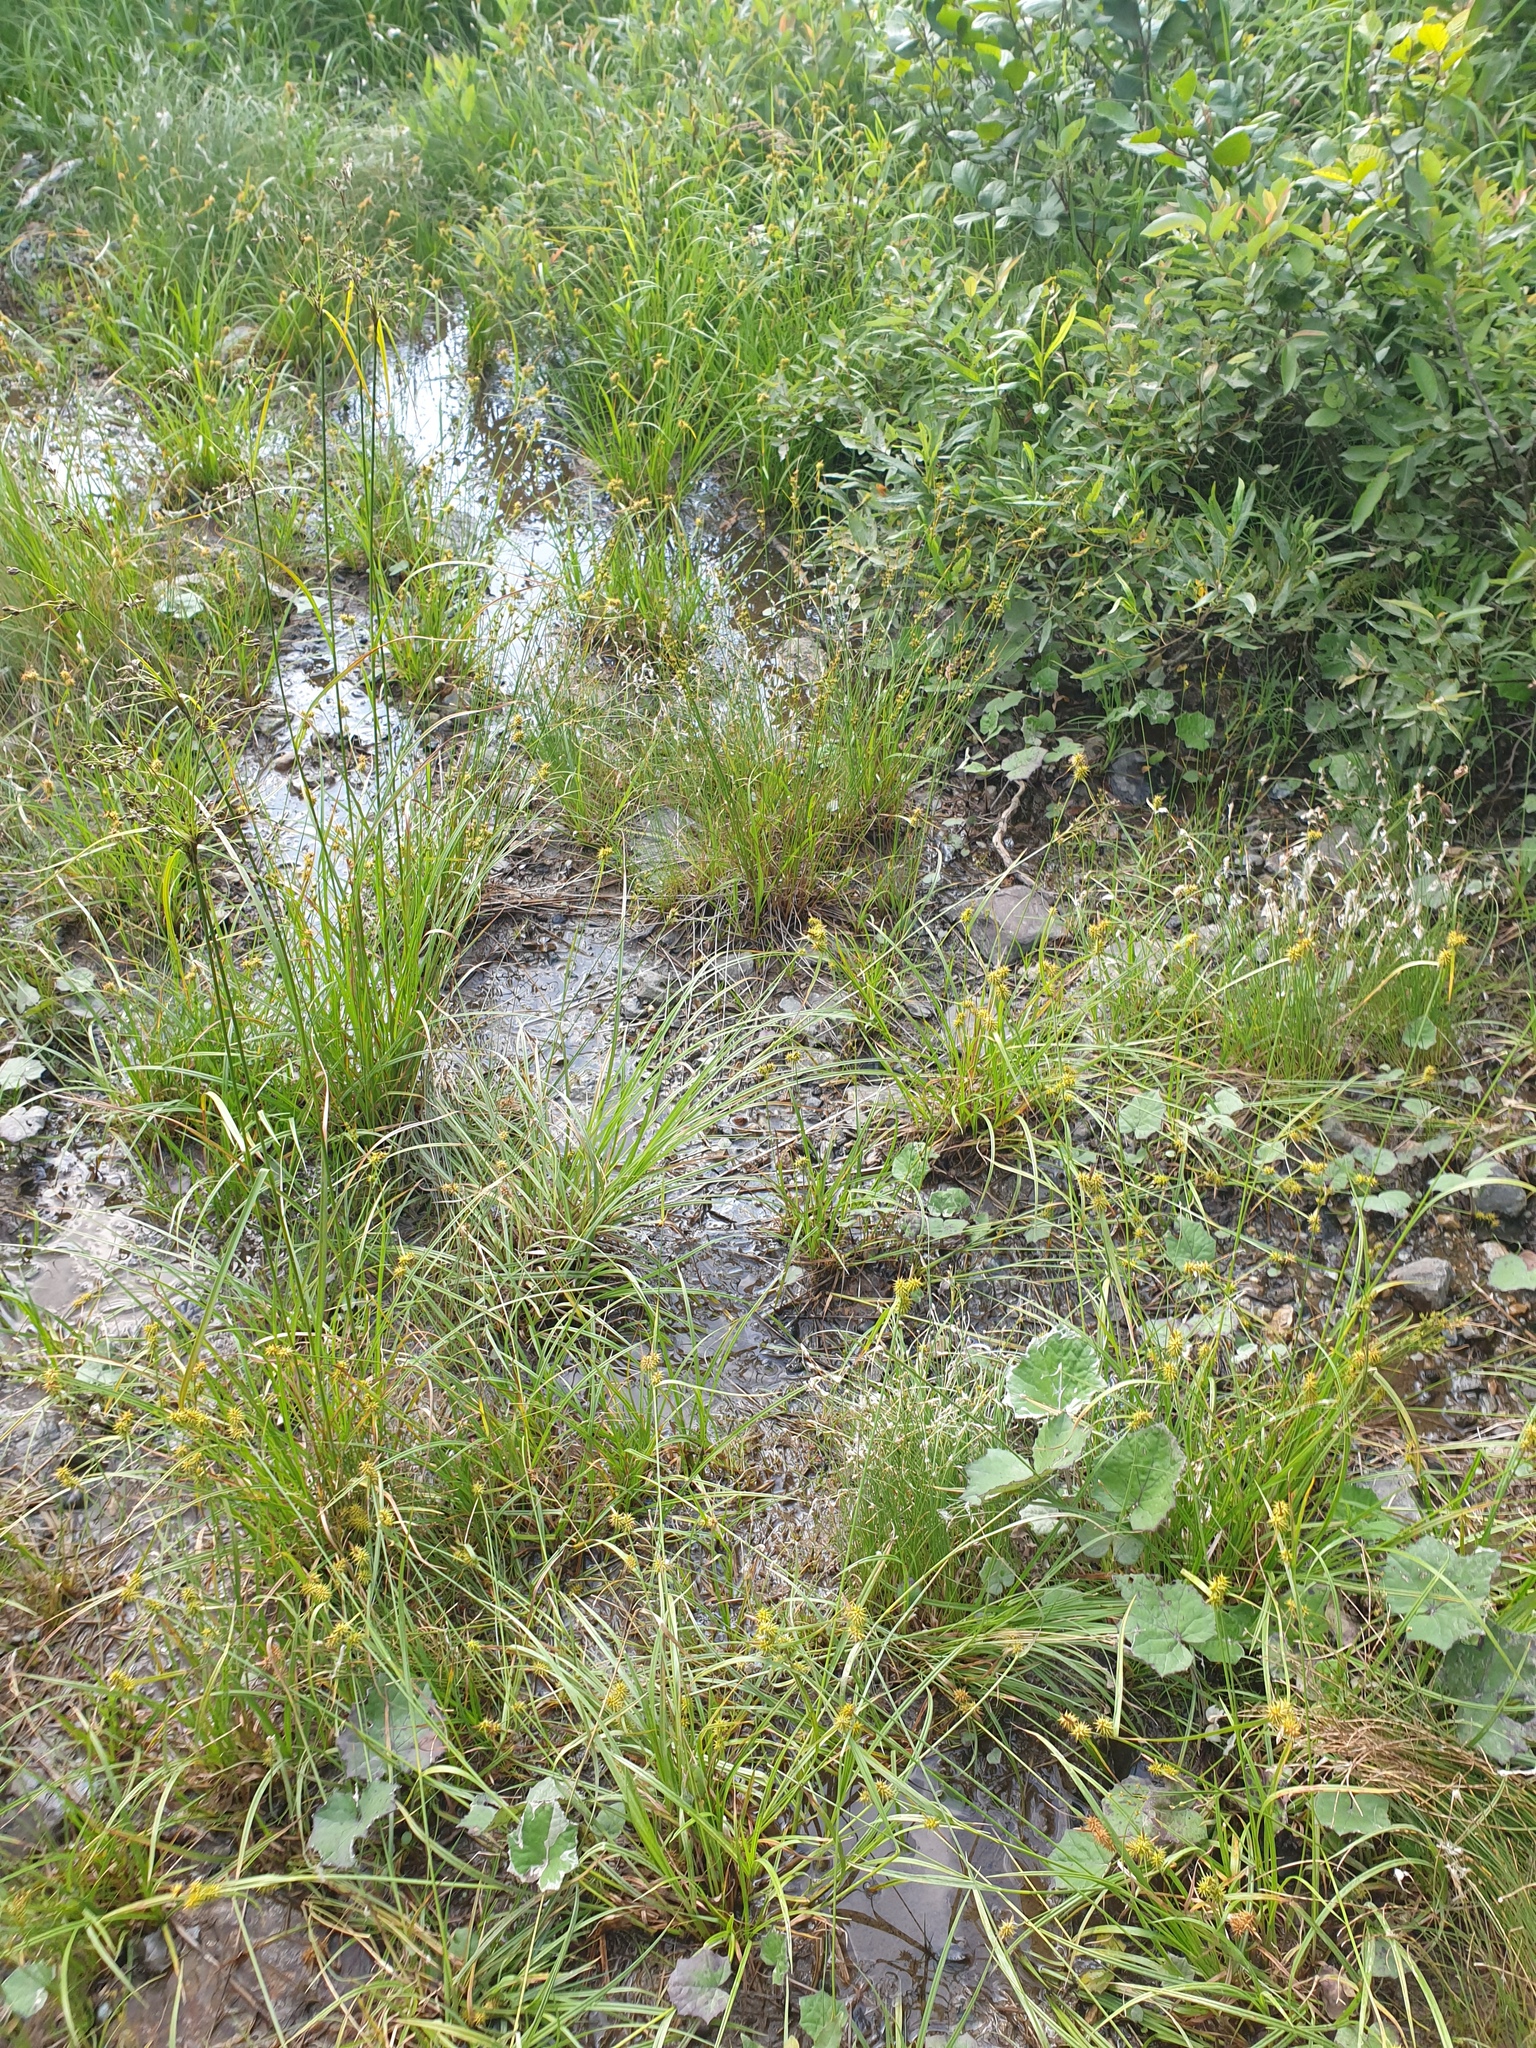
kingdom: Plantae
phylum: Tracheophyta
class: Liliopsida
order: Poales
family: Cyperaceae
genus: Carex
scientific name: Carex flava
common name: Large yellow-sedge
